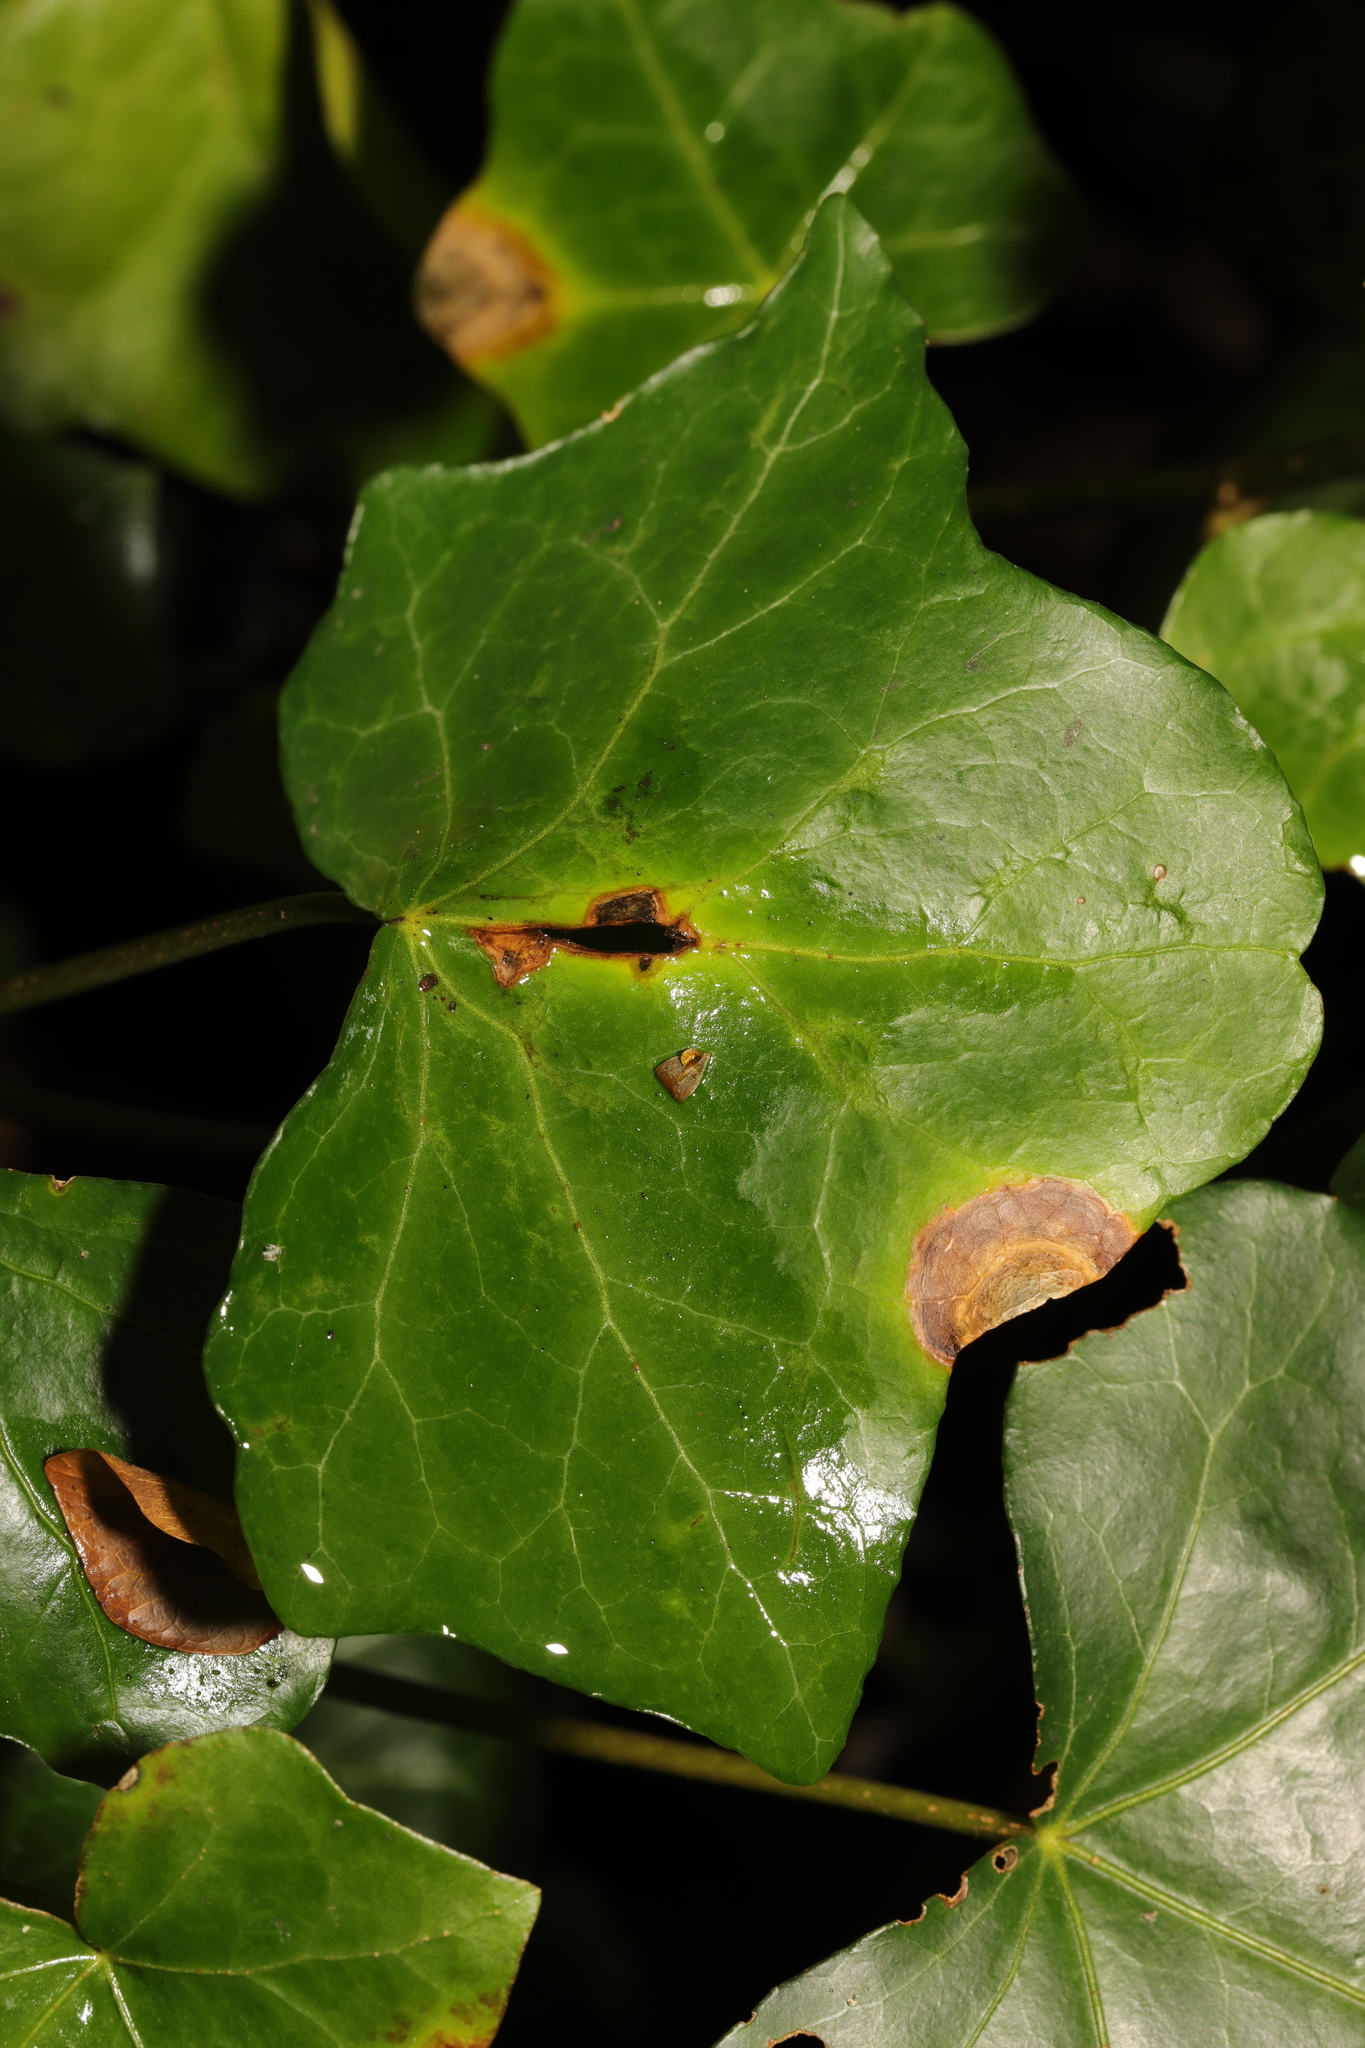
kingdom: Fungi
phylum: Ascomycota
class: Dothideomycetes
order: Pleosporales
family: Didymellaceae
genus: Boeremia
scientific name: Boeremia hedericola
